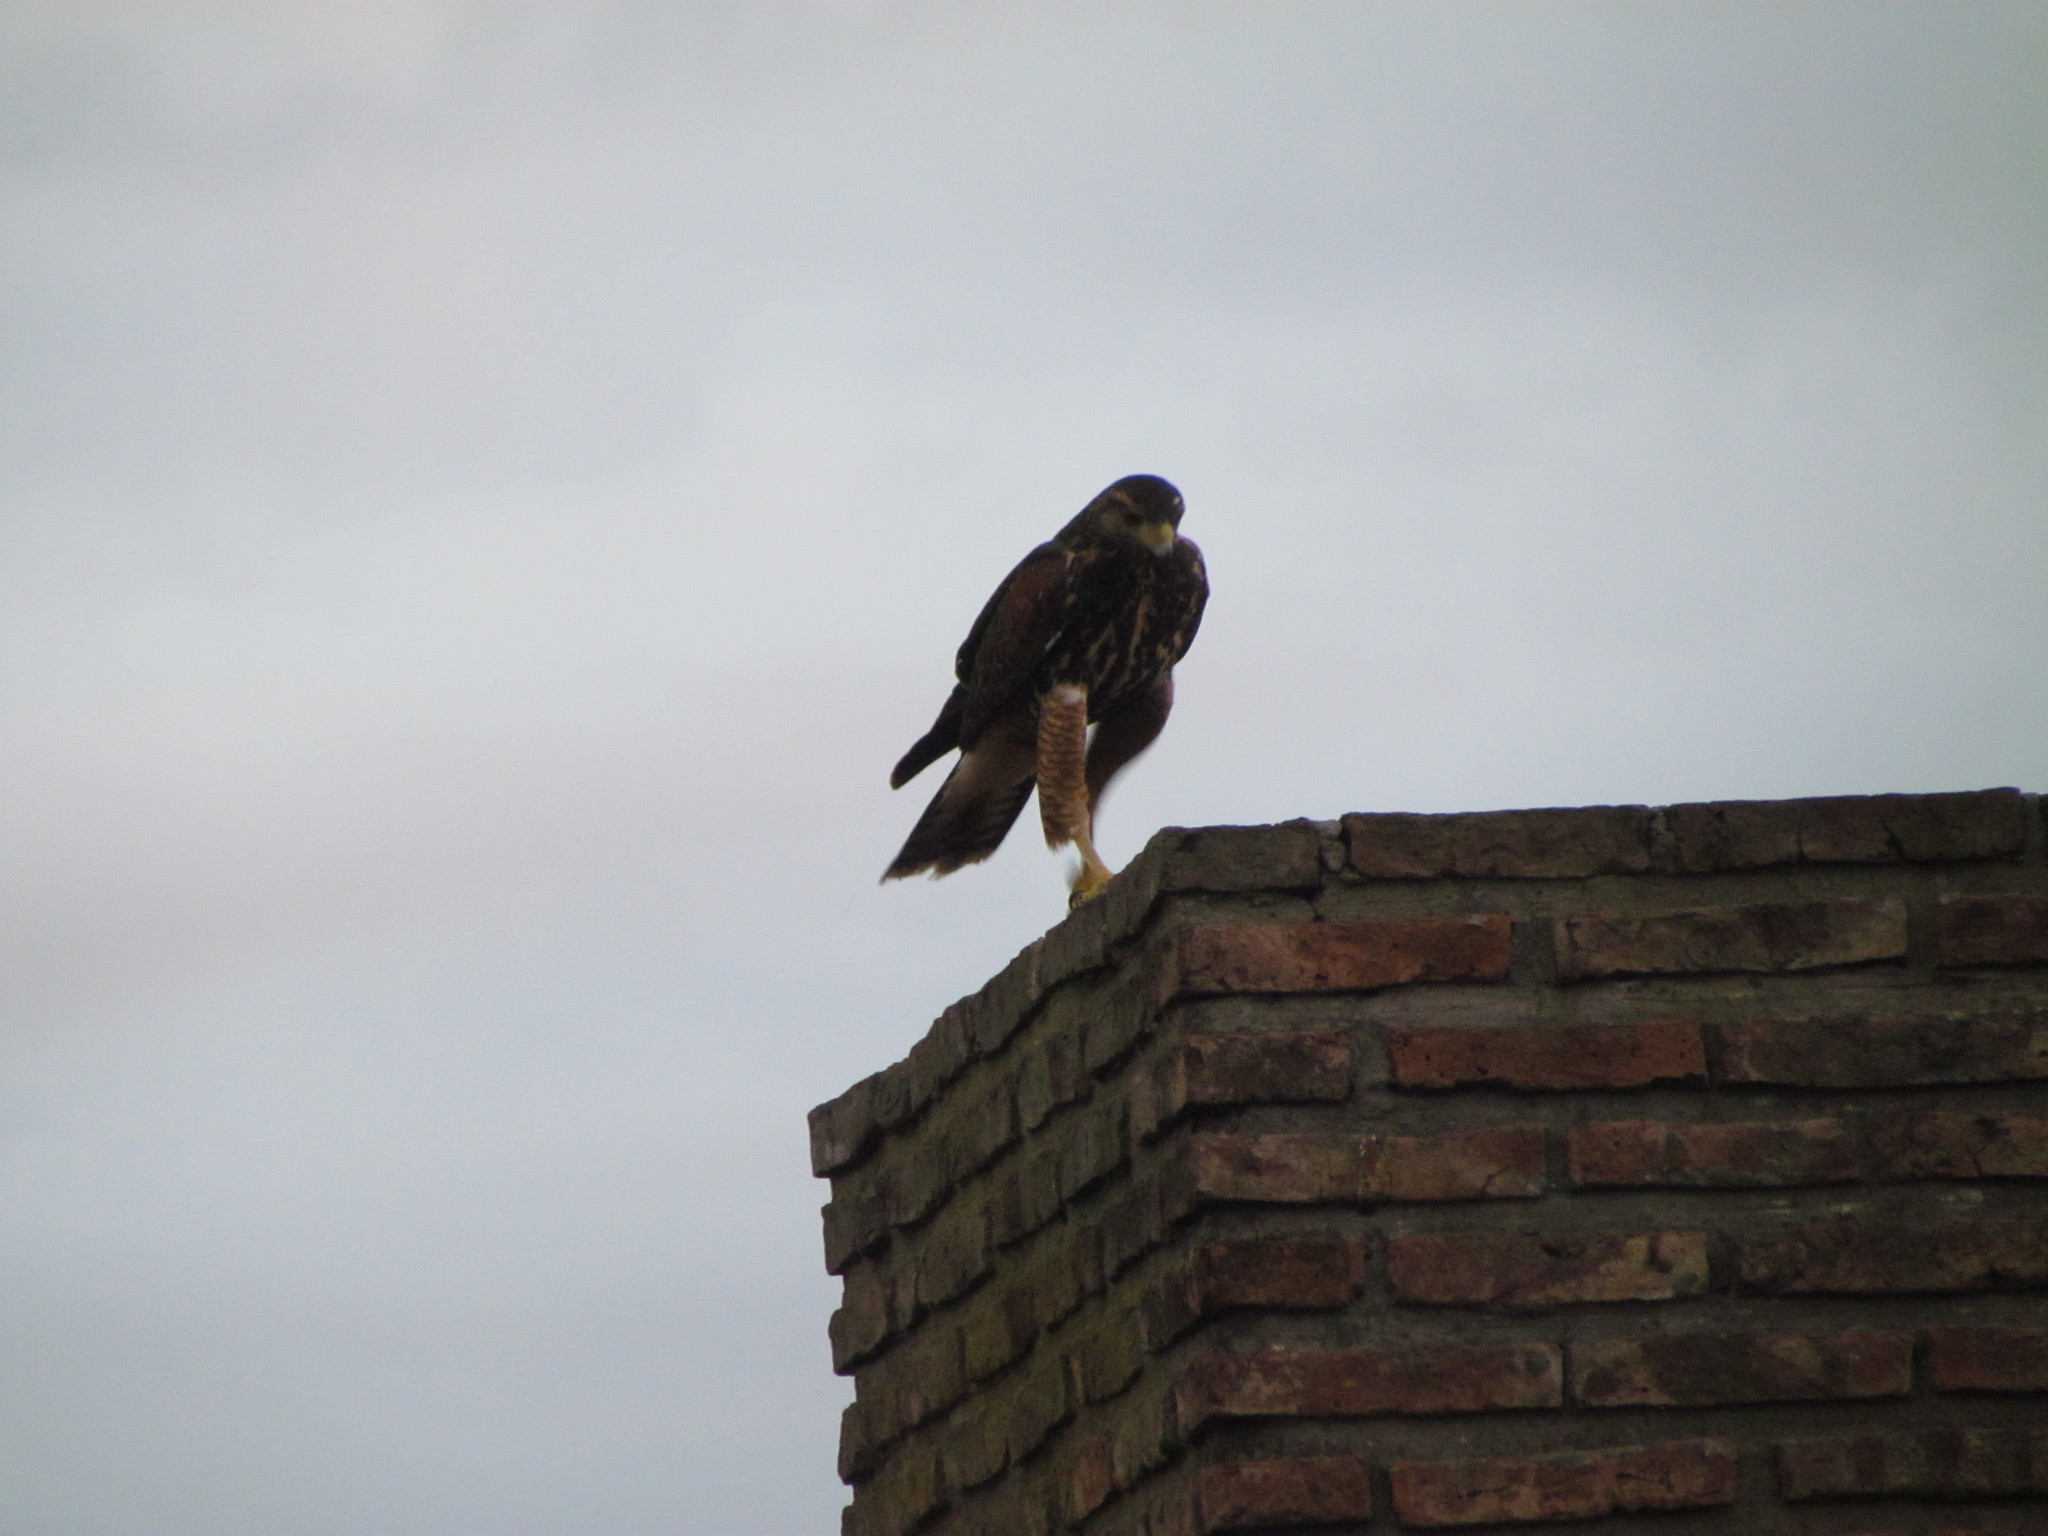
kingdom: Animalia
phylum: Chordata
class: Aves
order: Accipitriformes
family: Accipitridae
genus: Parabuteo
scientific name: Parabuteo unicinctus
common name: Harris's hawk
